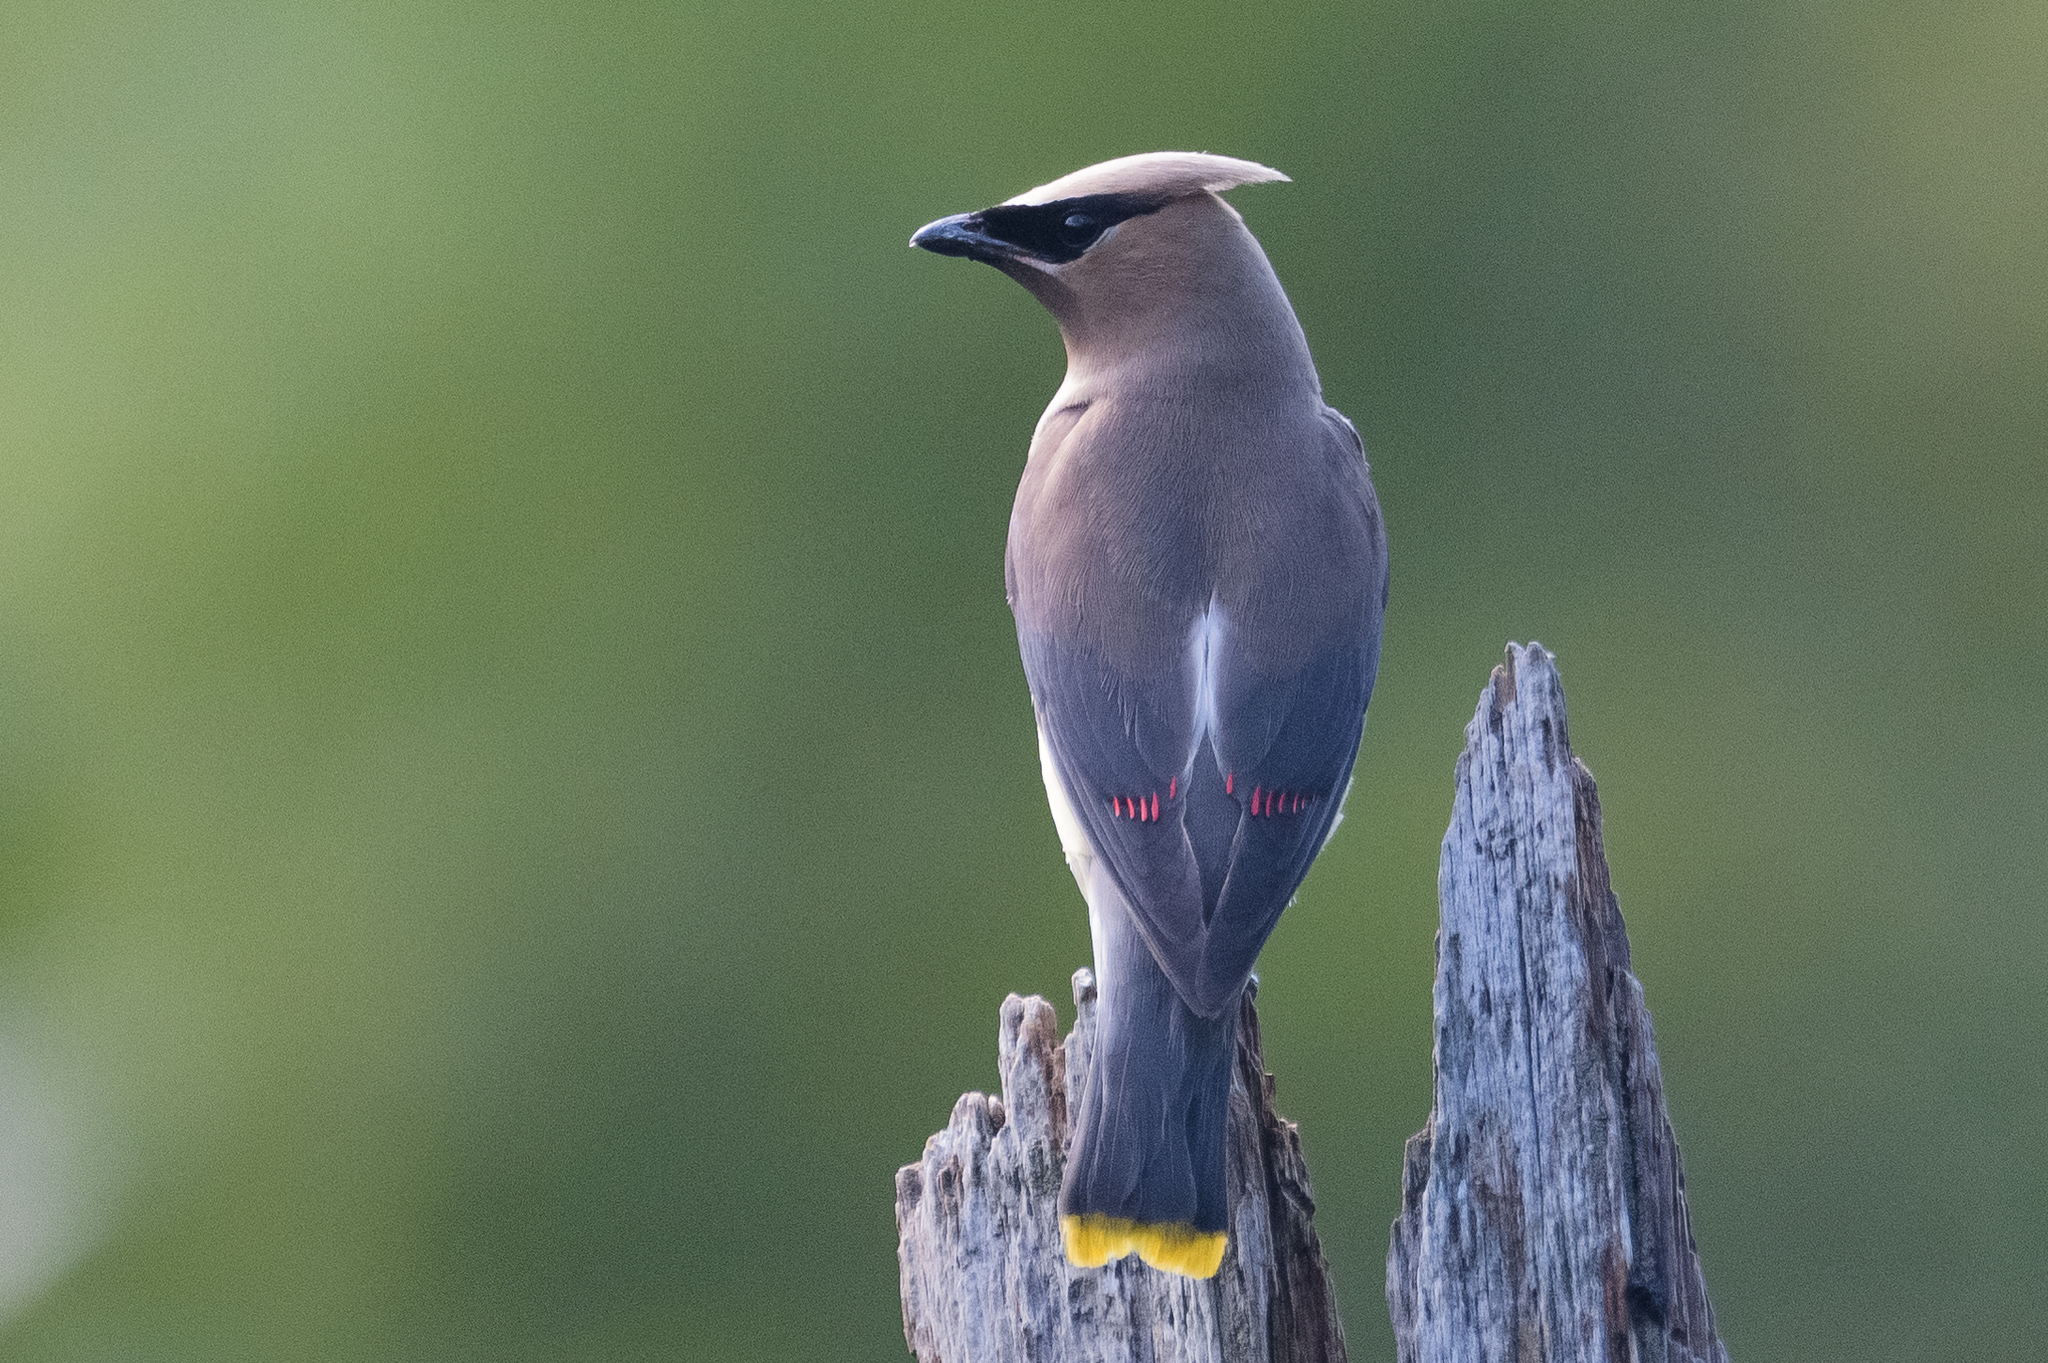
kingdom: Animalia
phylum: Chordata
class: Aves
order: Passeriformes
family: Bombycillidae
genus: Bombycilla
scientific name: Bombycilla cedrorum
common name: Cedar waxwing
